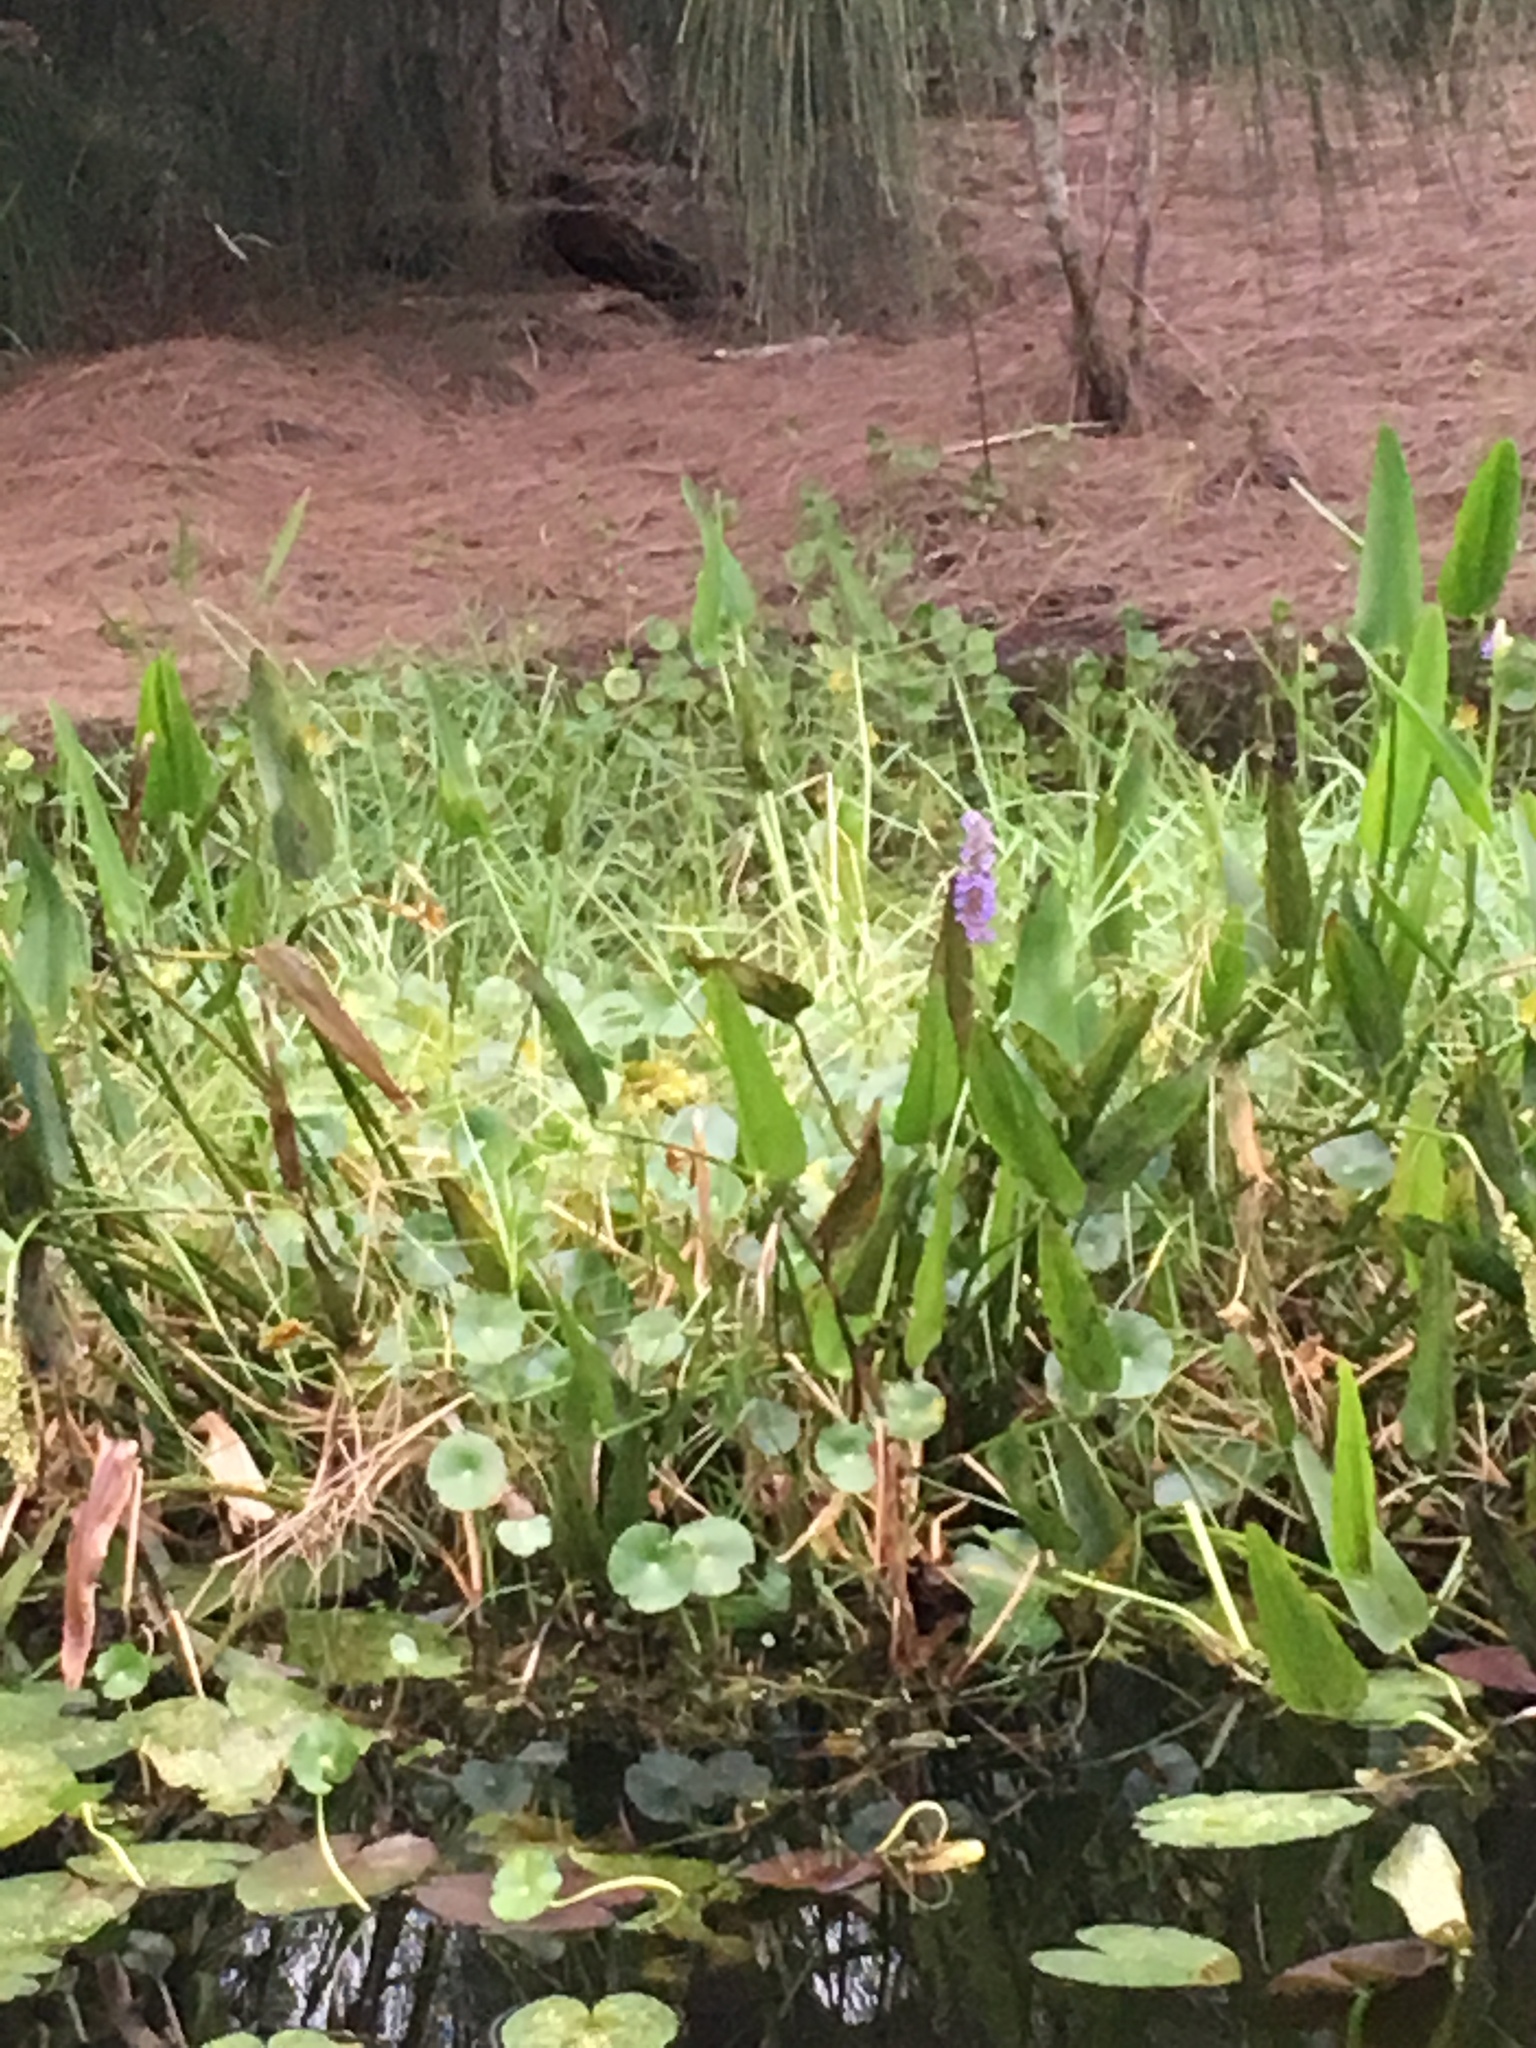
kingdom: Plantae
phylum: Tracheophyta
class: Liliopsida
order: Commelinales
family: Pontederiaceae
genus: Pontederia
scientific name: Pontederia cordata
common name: Pickerelweed
